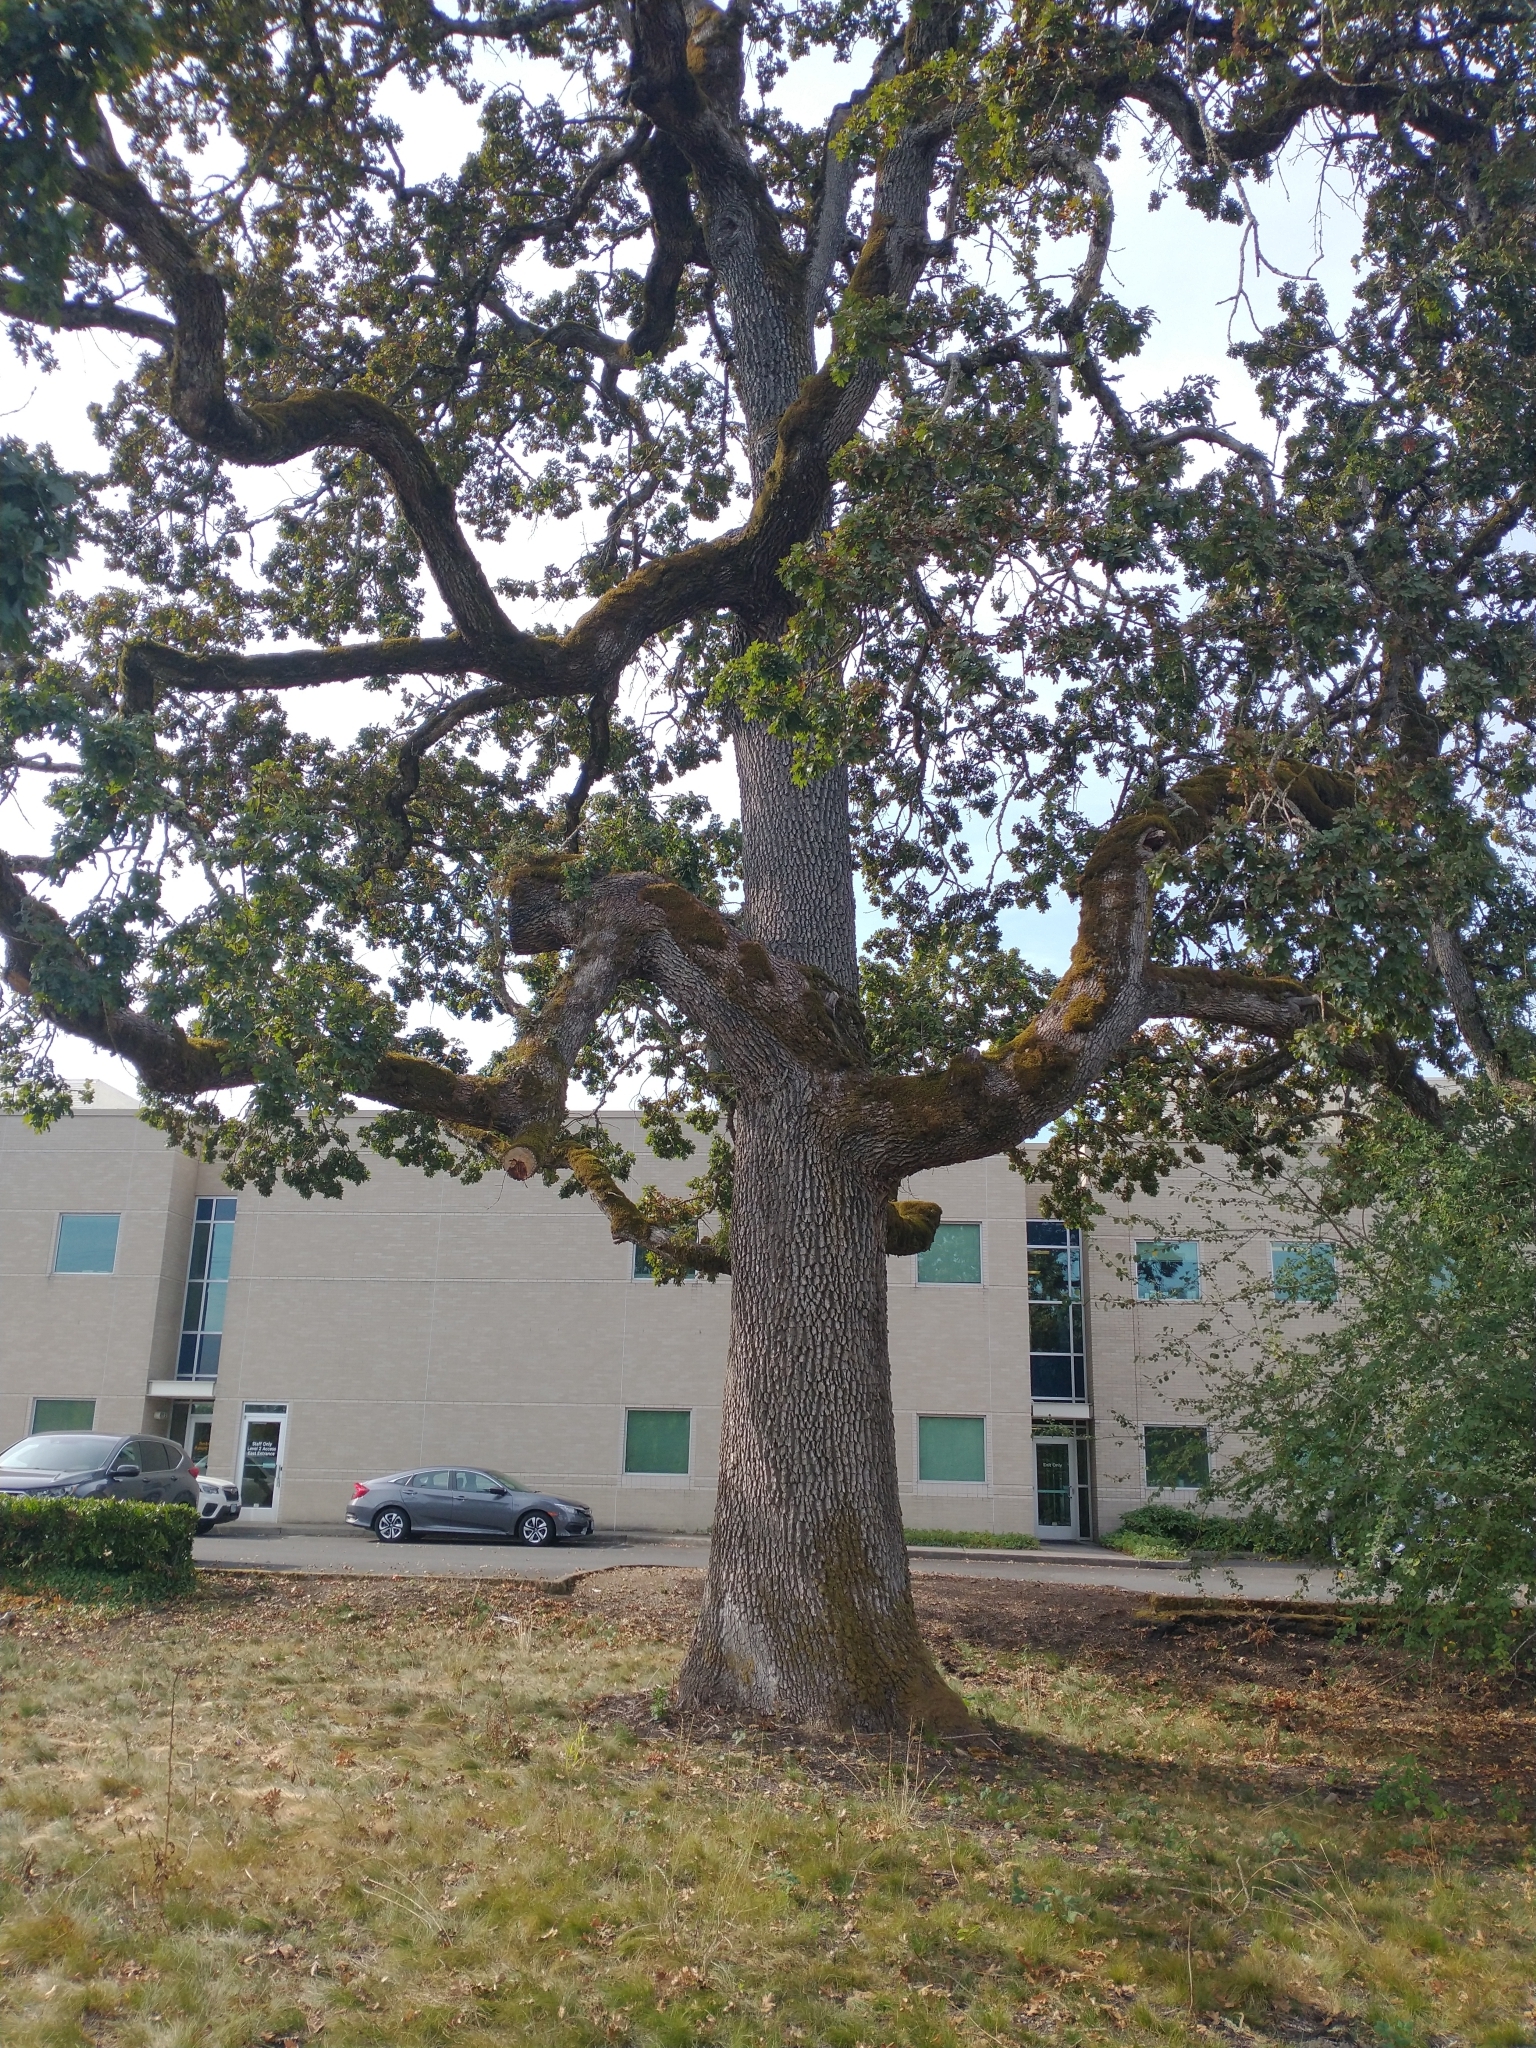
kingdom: Plantae
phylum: Tracheophyta
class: Magnoliopsida
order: Fagales
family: Fagaceae
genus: Quercus
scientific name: Quercus garryana
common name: Garry oak
